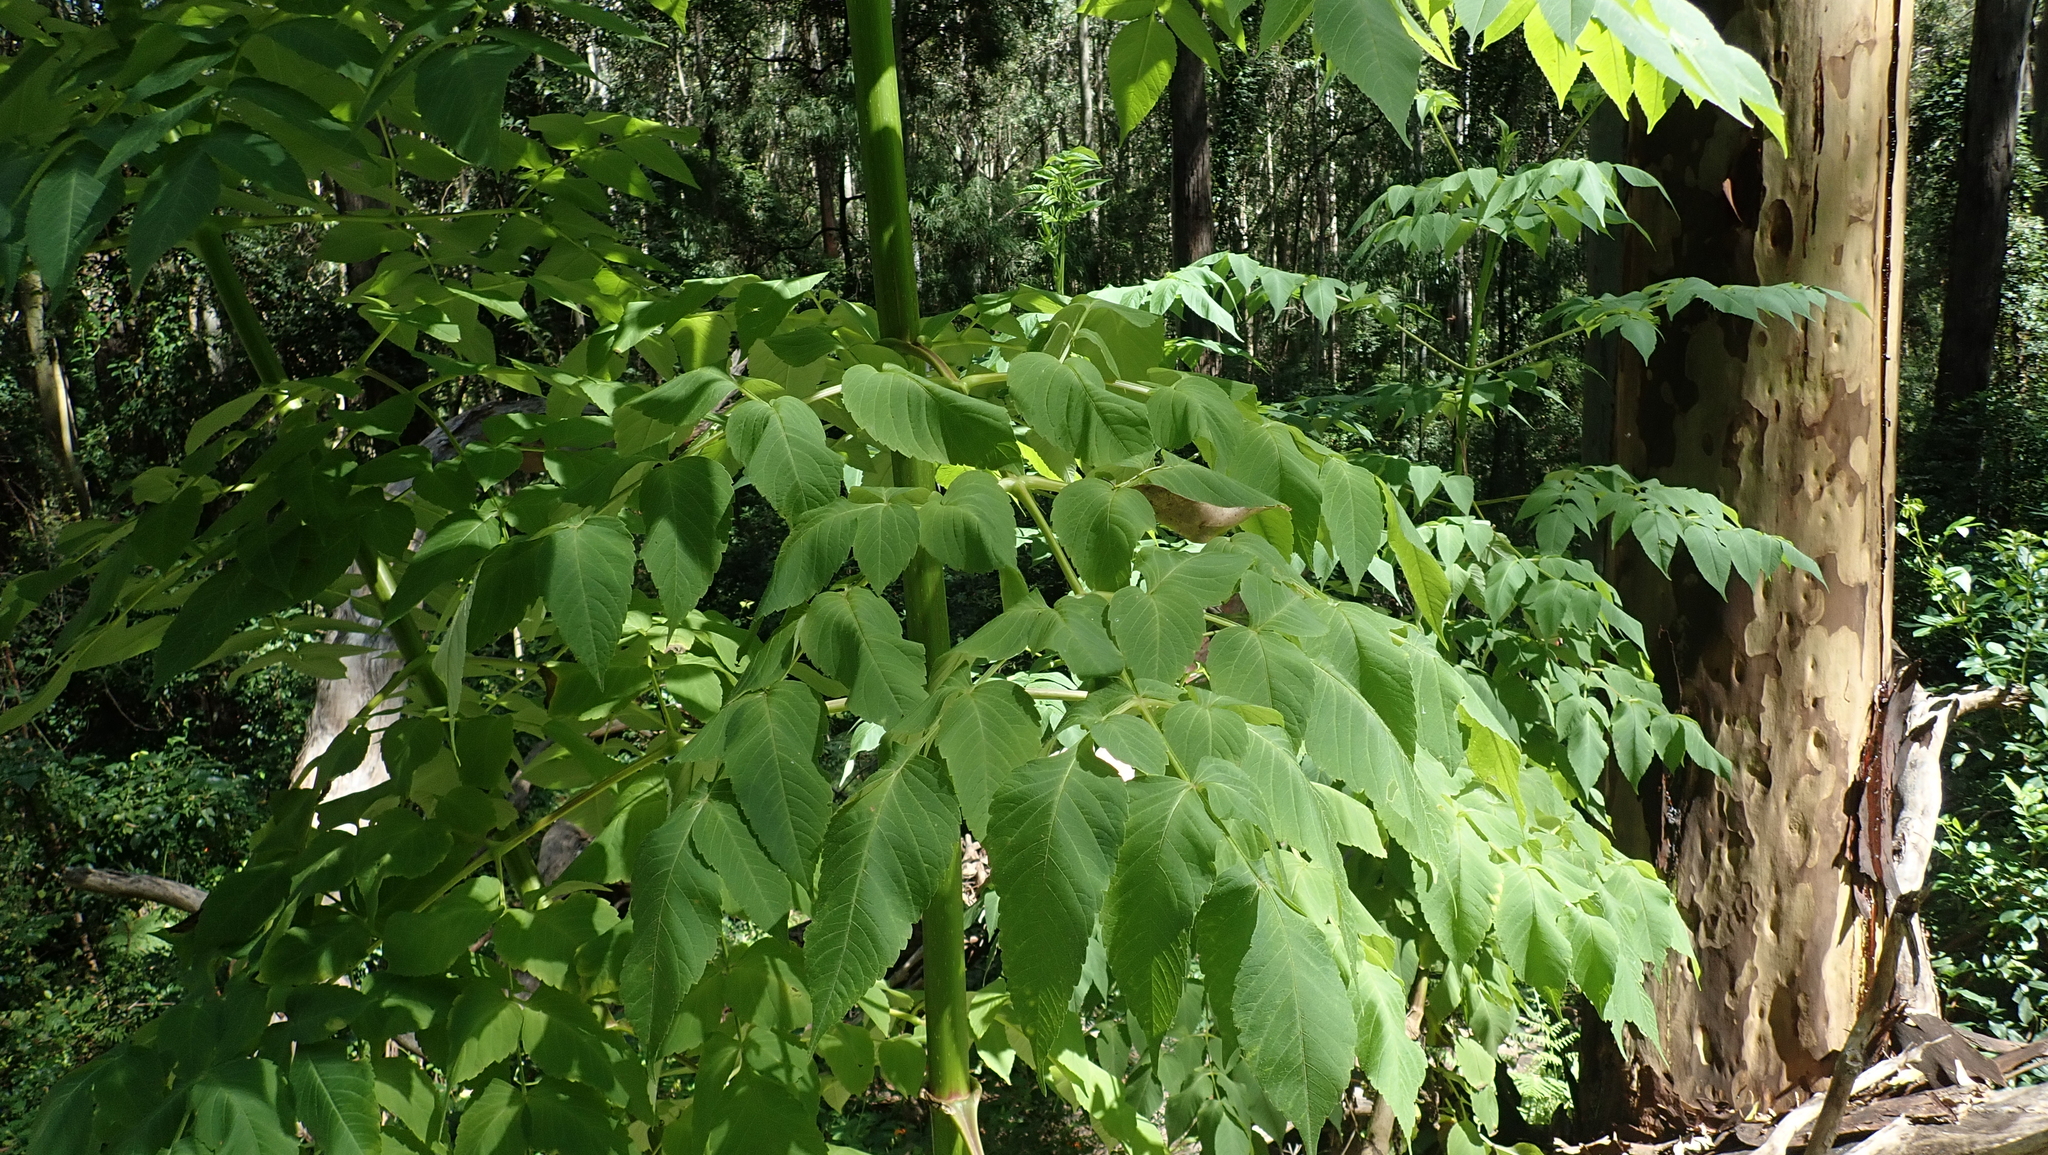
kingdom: Plantae
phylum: Tracheophyta
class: Magnoliopsida
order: Asterales
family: Asteraceae
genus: Dahlia
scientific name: Dahlia imperialis
